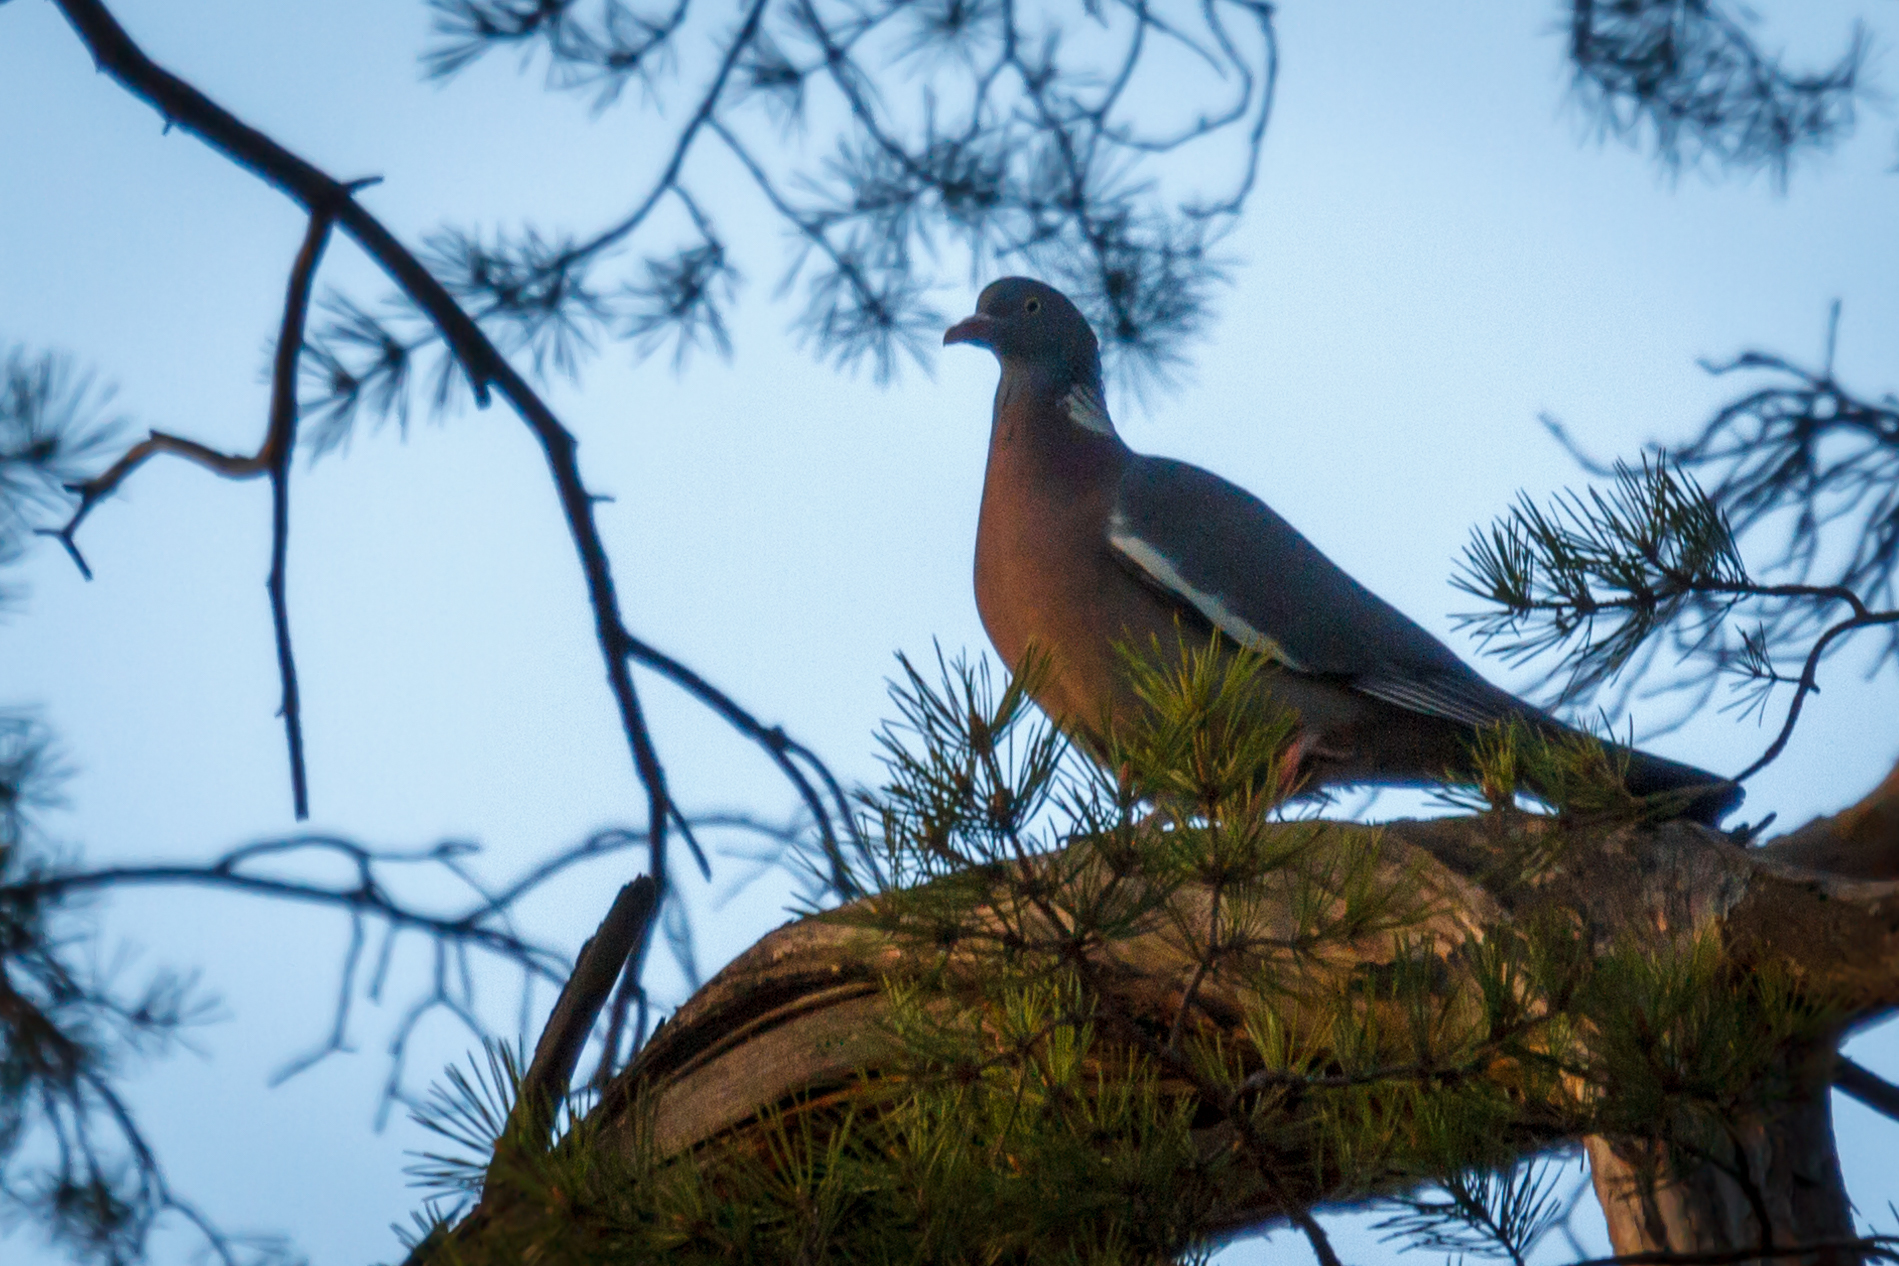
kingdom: Animalia
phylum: Chordata
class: Aves
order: Columbiformes
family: Columbidae
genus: Columba
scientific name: Columba palumbus
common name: Common wood pigeon
